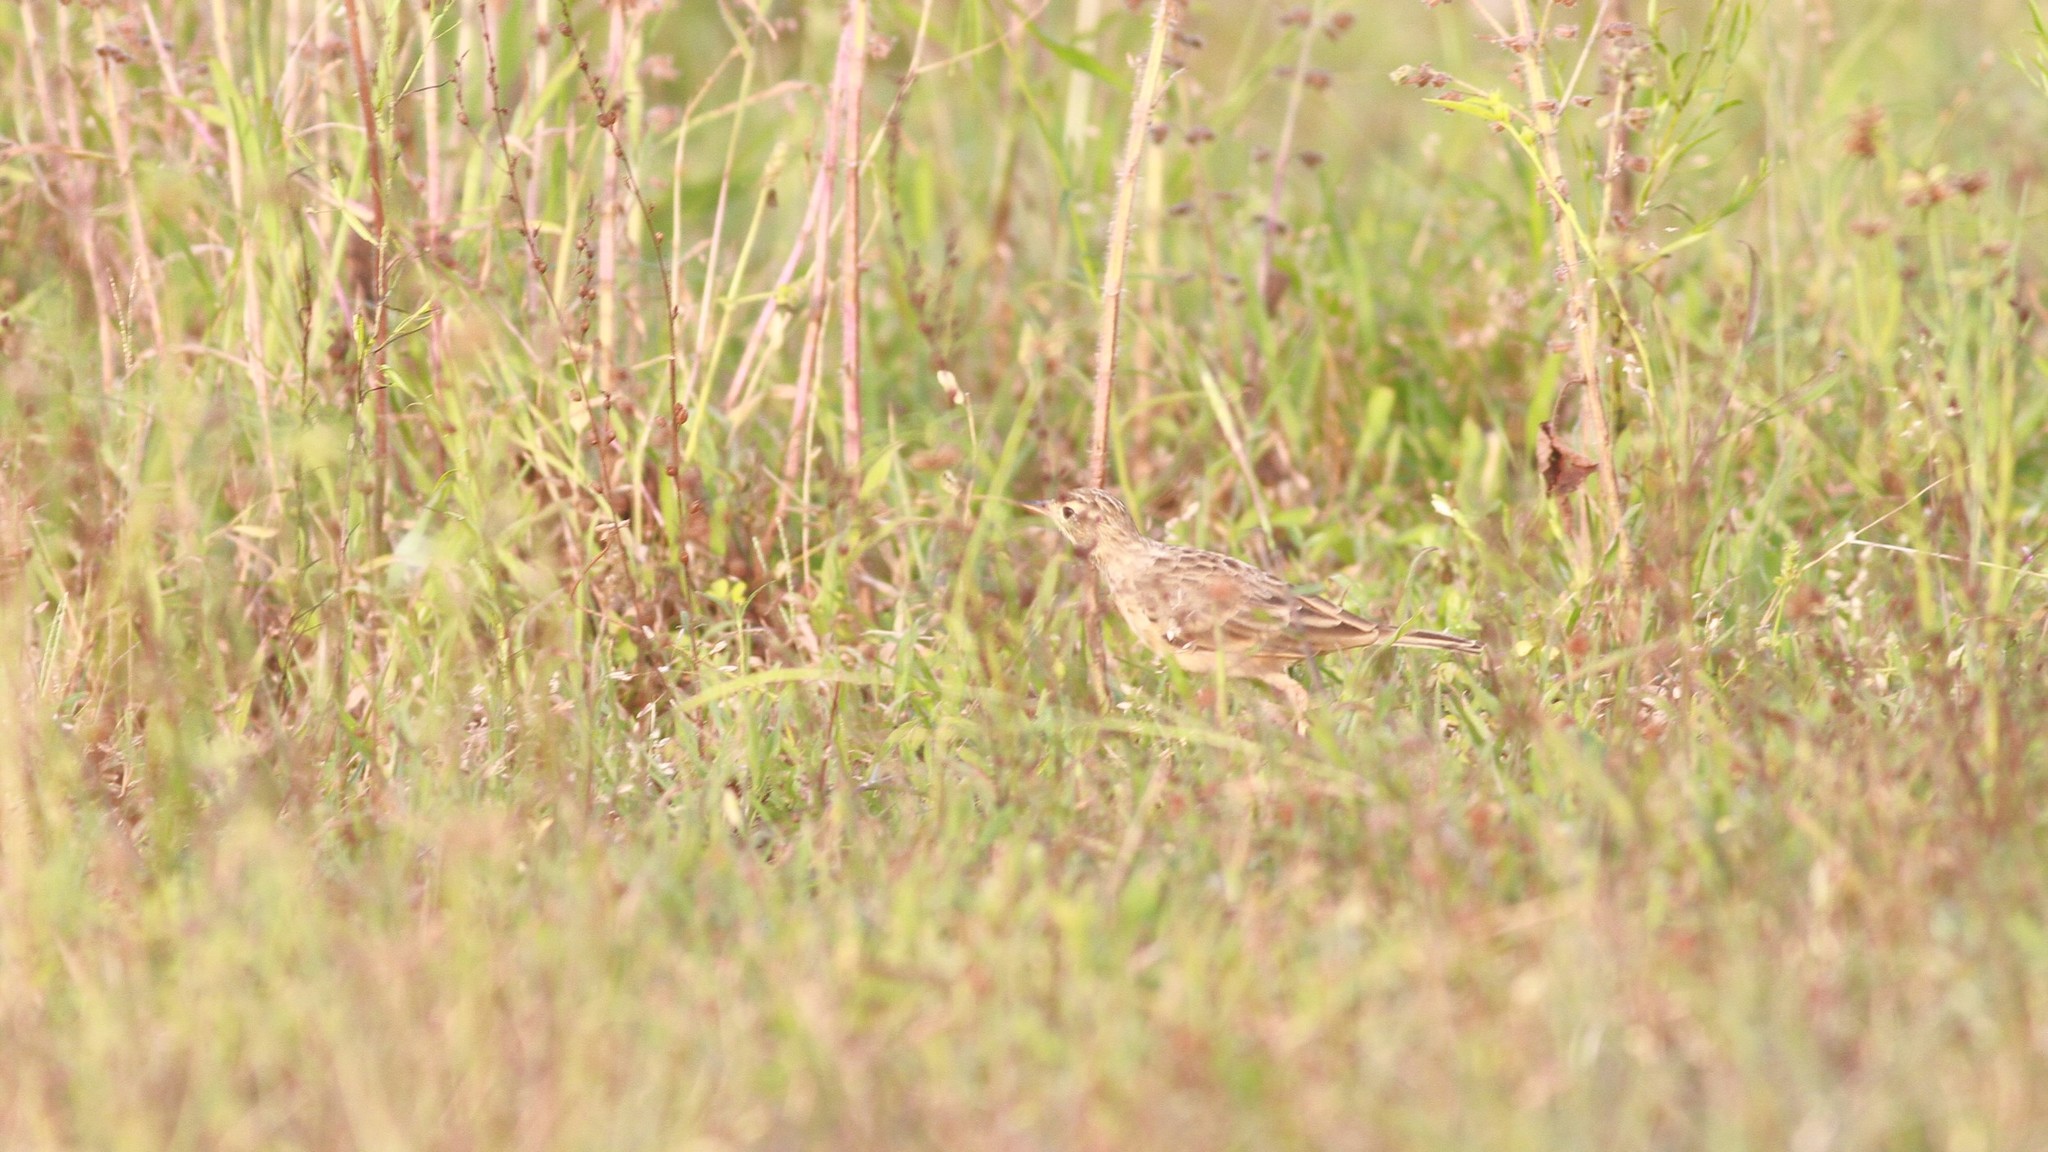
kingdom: Animalia
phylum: Chordata
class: Aves
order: Passeriformes
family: Motacillidae
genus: Anthus
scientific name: Anthus rufulus
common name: Paddyfield pipit
